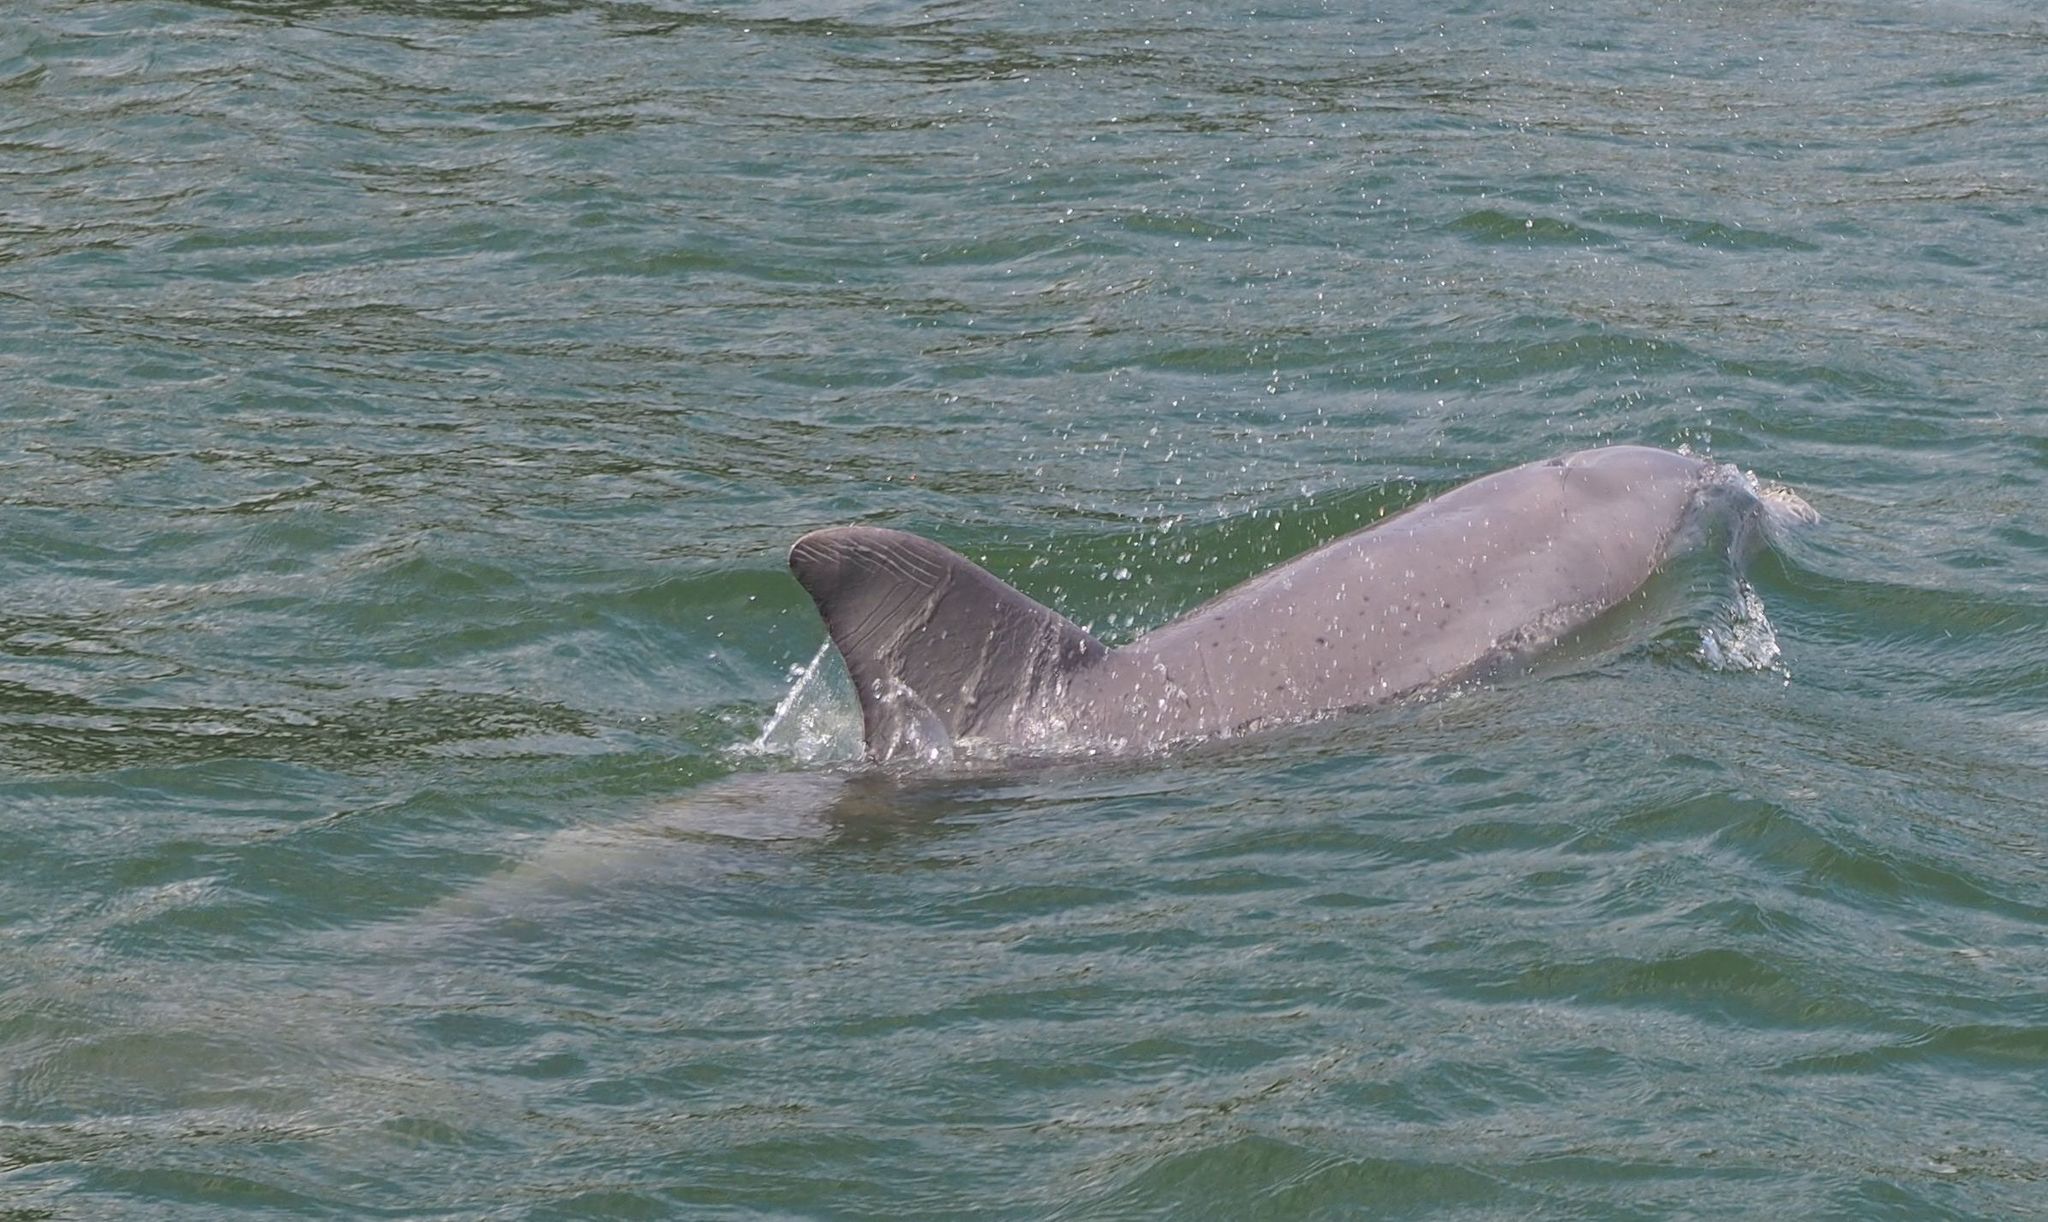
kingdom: Animalia
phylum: Chordata
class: Mammalia
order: Cetacea
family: Delphinidae
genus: Tursiops
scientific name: Tursiops truncatus
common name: Bottlenose dolphin
